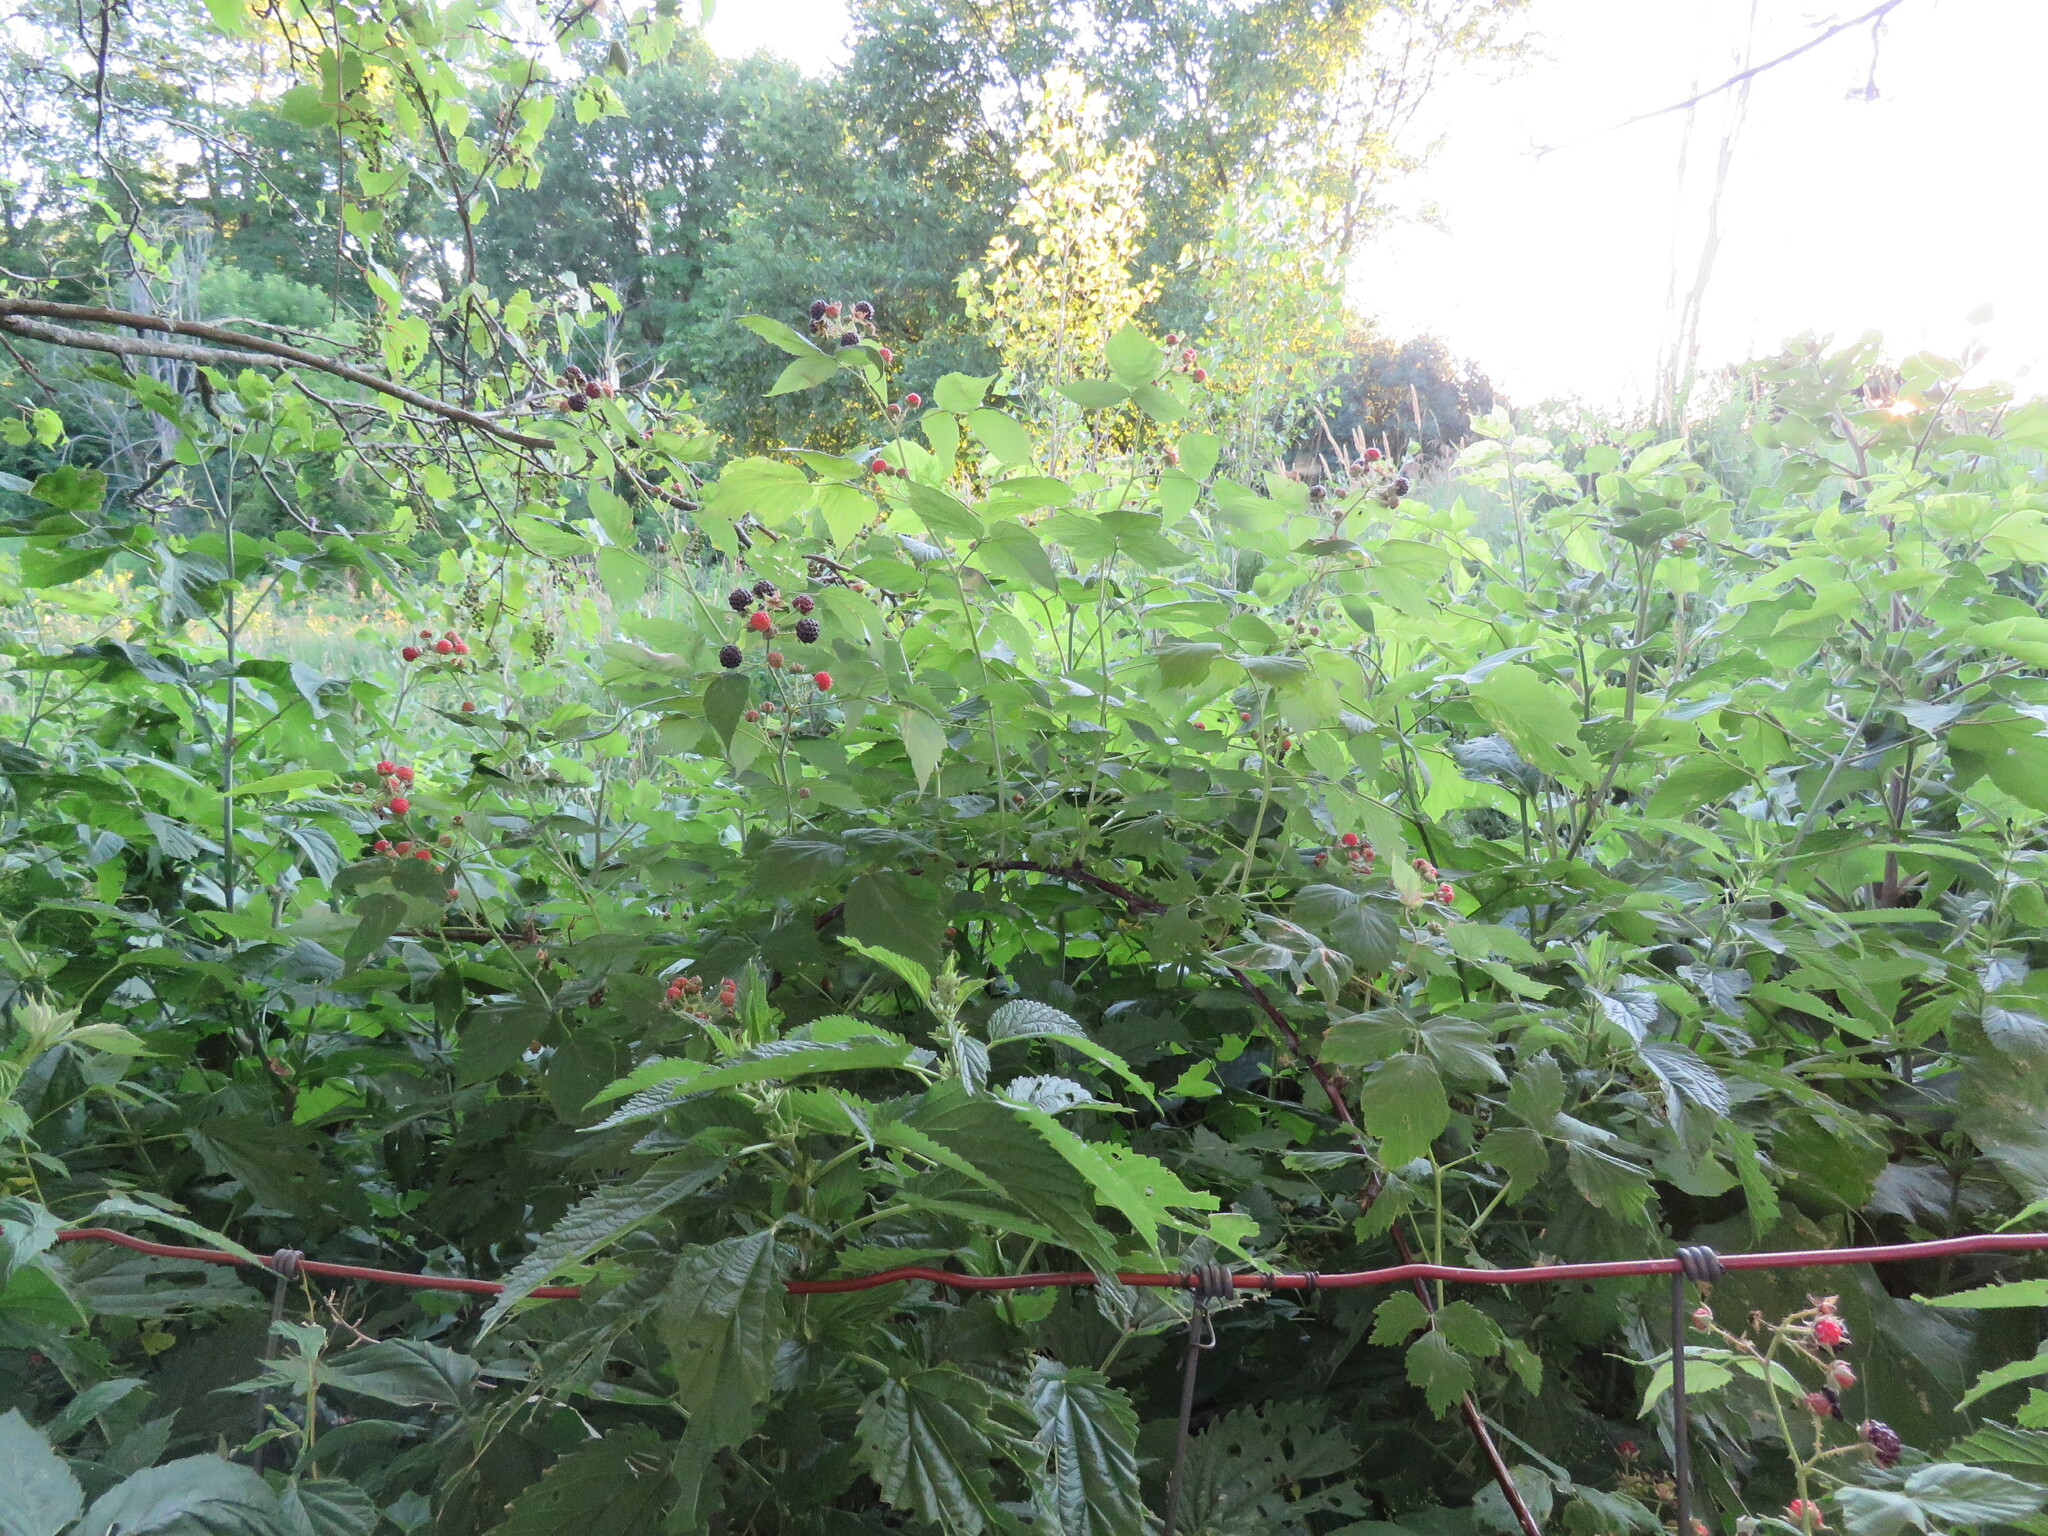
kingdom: Plantae
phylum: Tracheophyta
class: Magnoliopsida
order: Rosales
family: Rosaceae
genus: Rubus
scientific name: Rubus occidentalis
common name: Black raspberry
